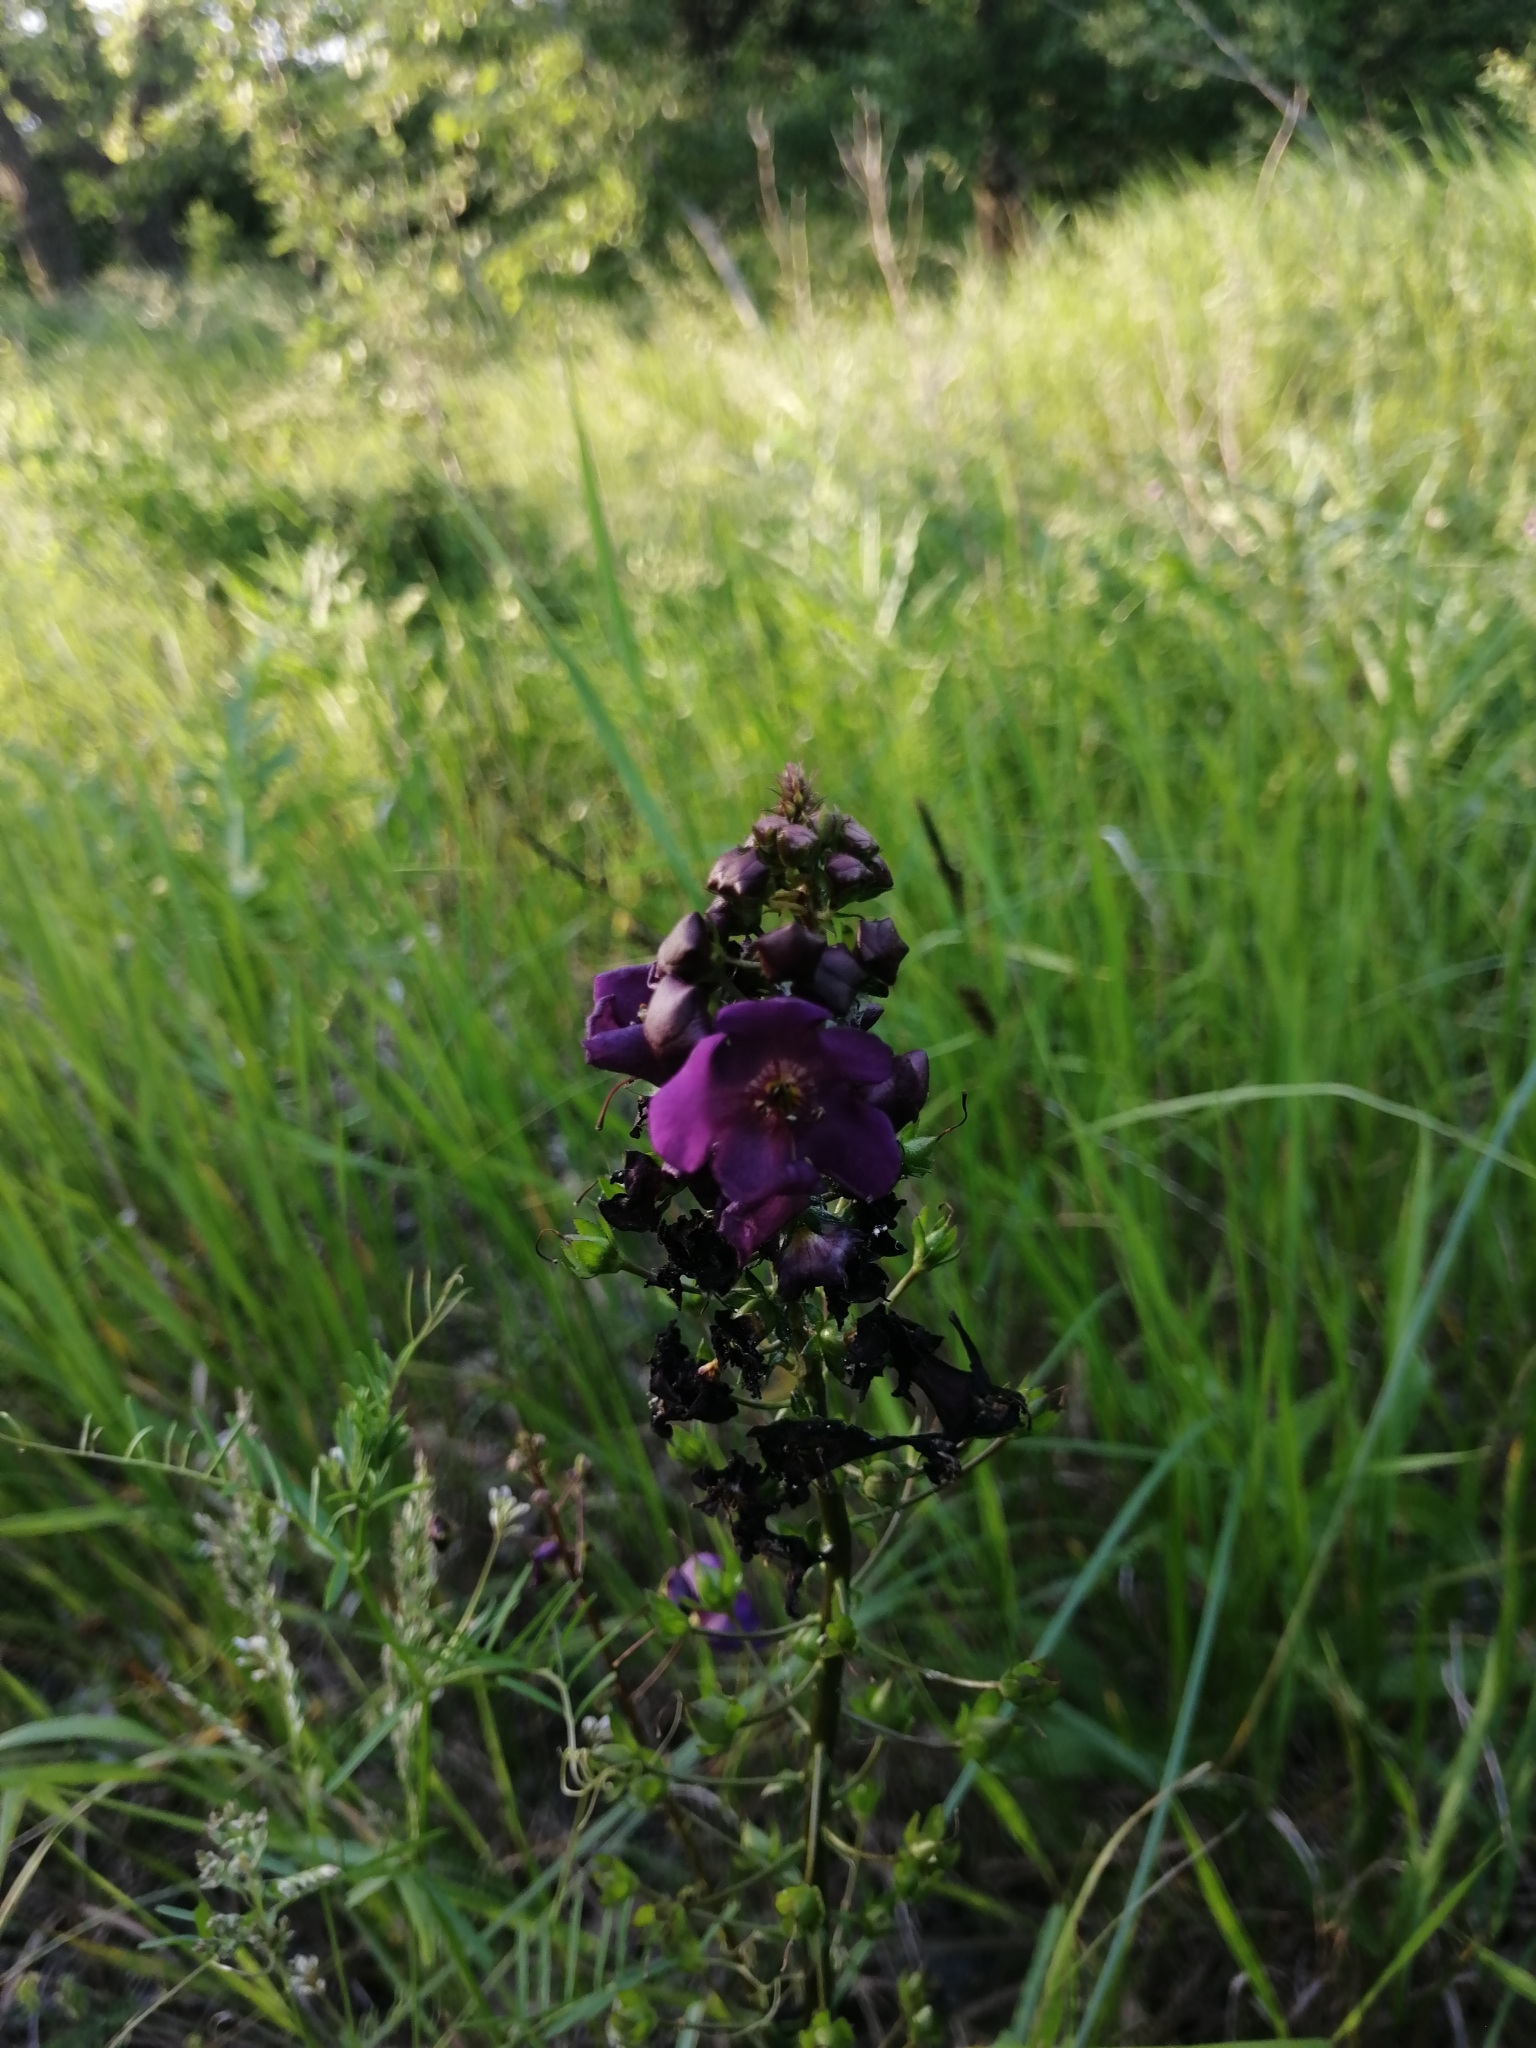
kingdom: Plantae
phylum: Tracheophyta
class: Magnoliopsida
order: Lamiales
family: Scrophulariaceae
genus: Verbascum
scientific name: Verbascum phoeniceum
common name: Purple mullein
